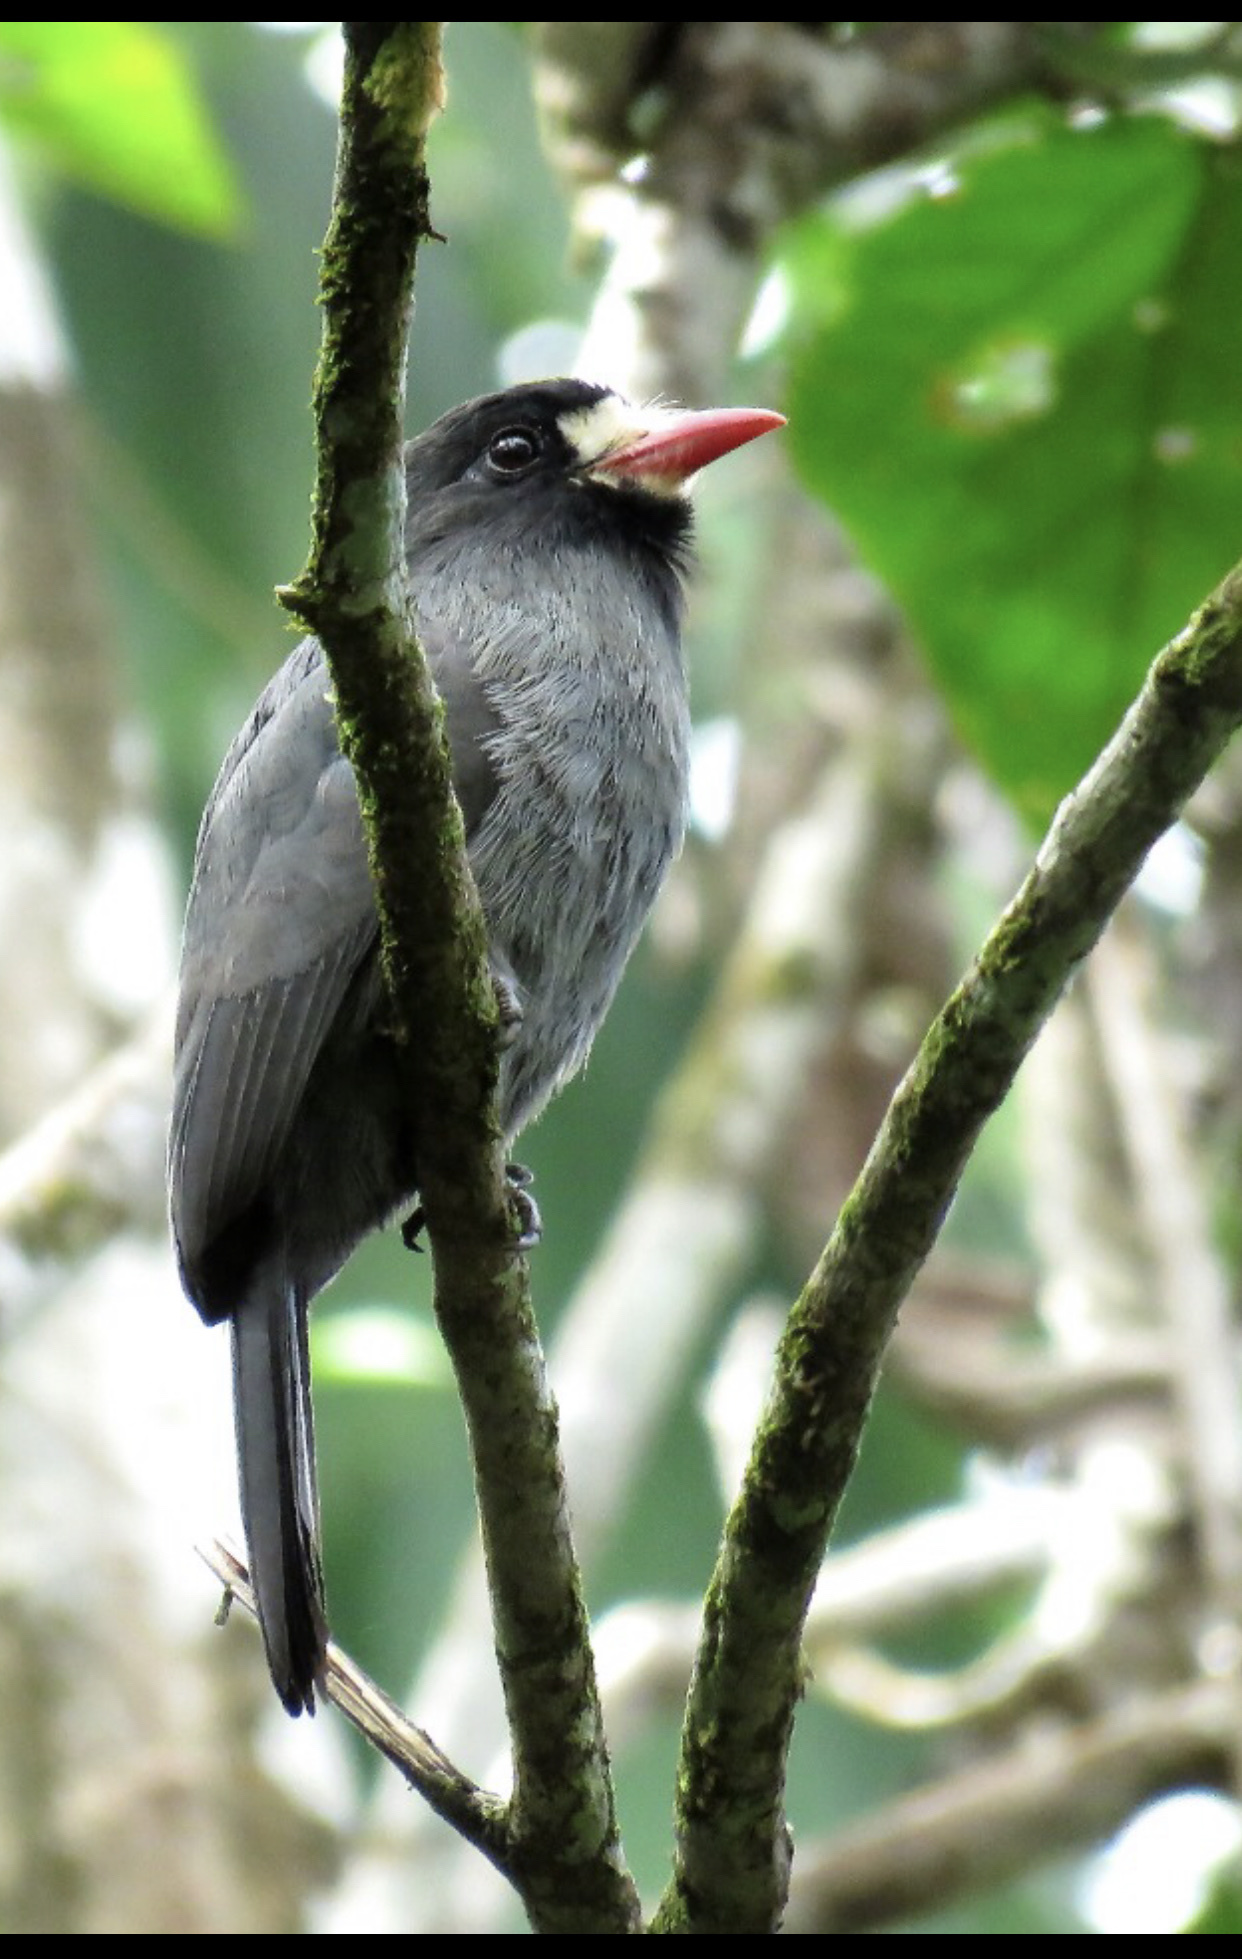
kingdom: Animalia
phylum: Chordata
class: Aves
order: Piciformes
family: Bucconidae
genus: Monasa
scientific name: Monasa morphoeus
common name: White-fronted nunbird
